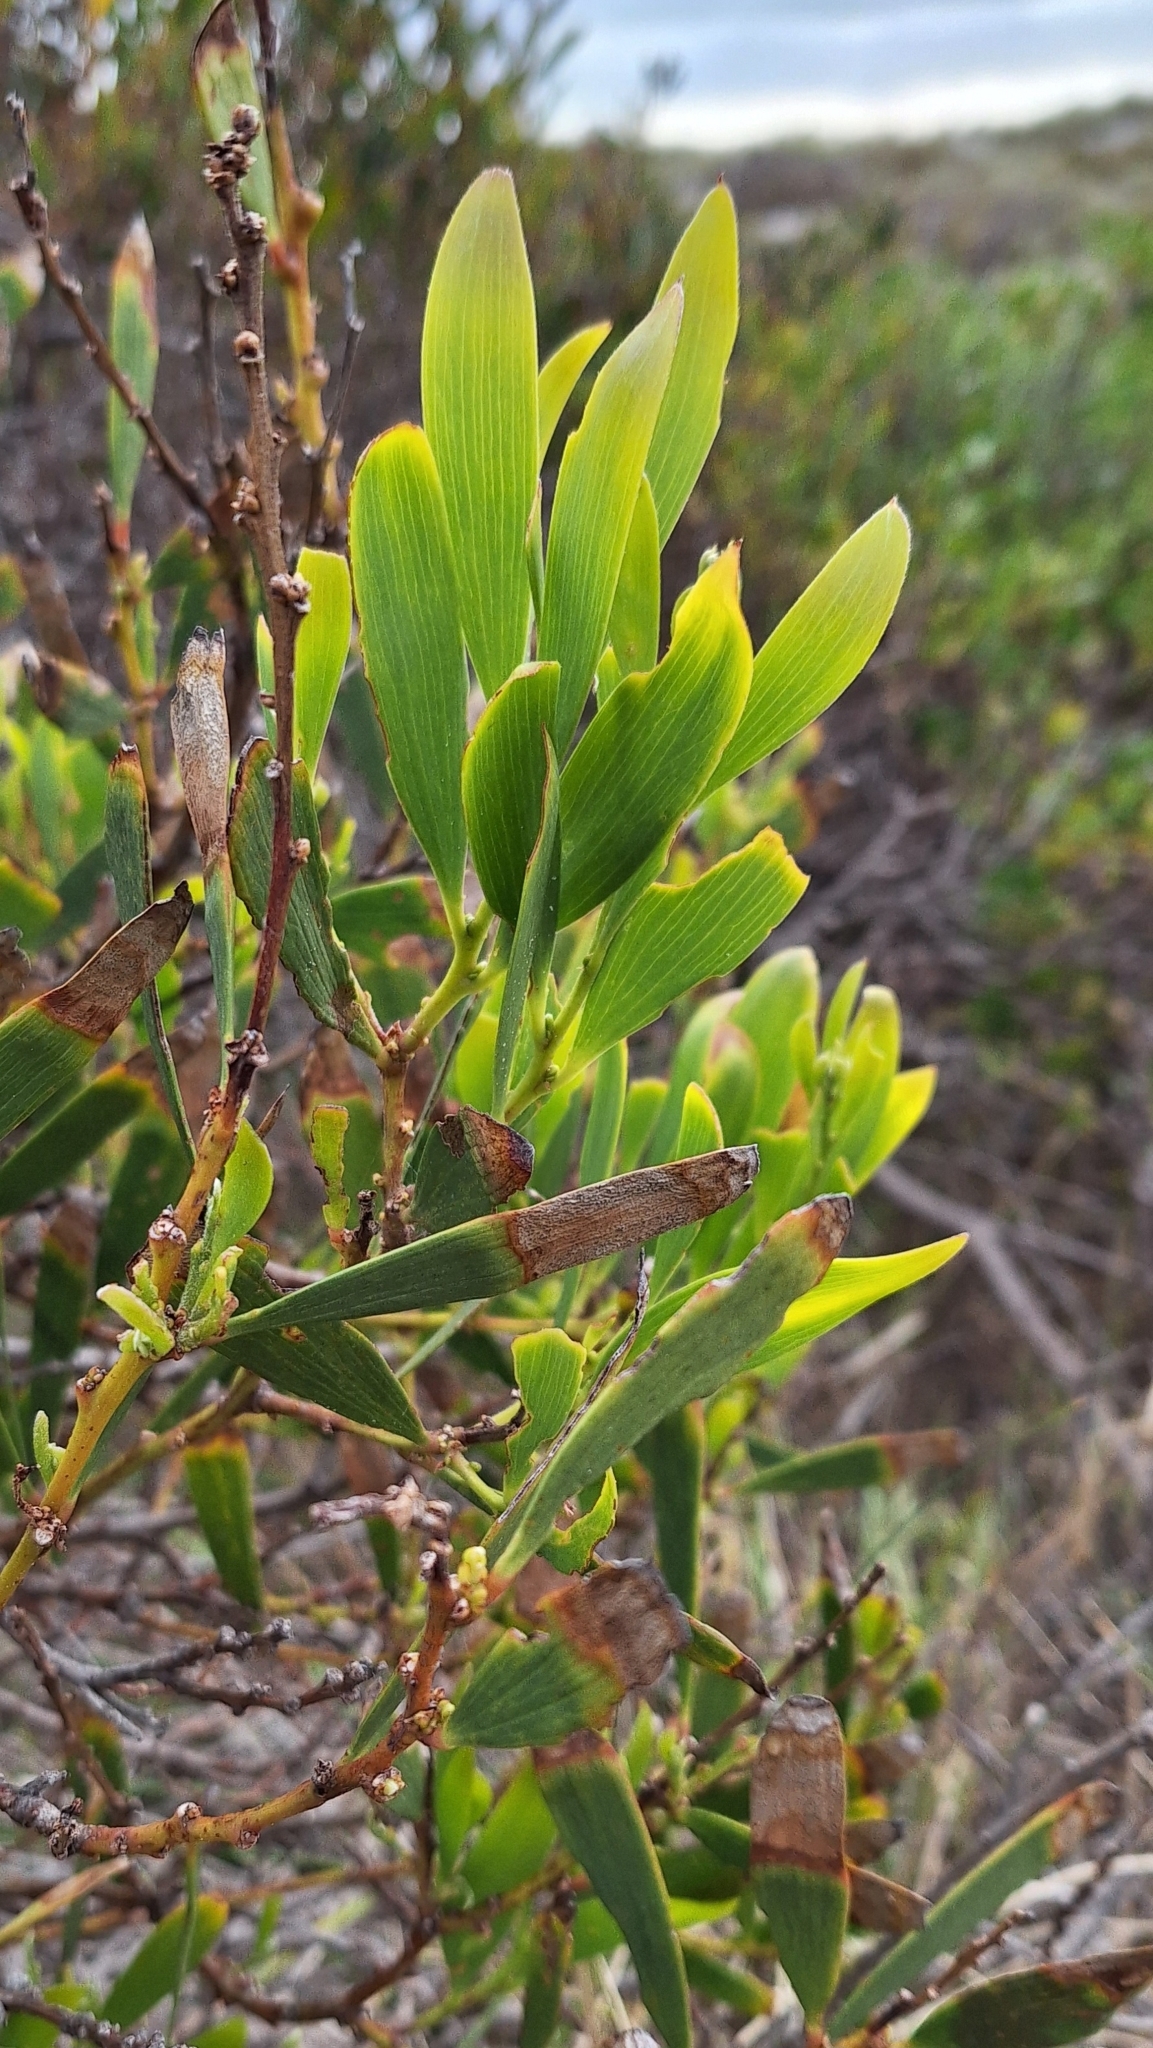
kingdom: Plantae
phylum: Tracheophyta
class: Magnoliopsida
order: Fabales
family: Fabaceae
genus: Acacia
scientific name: Acacia longifolia
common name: Sydney golden wattle
